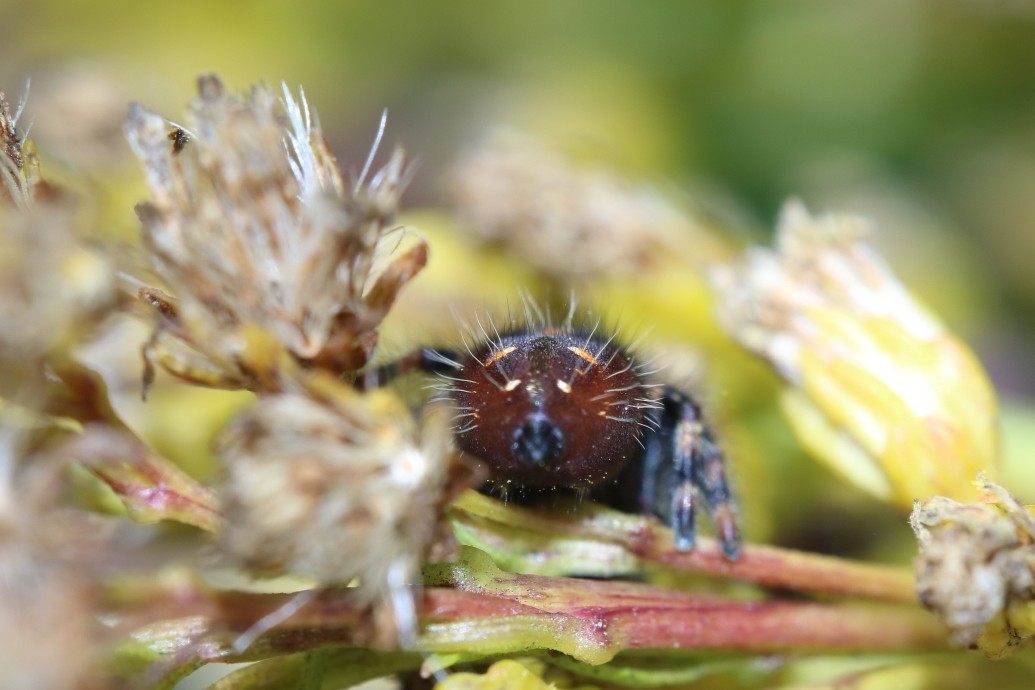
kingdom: Animalia
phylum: Arthropoda
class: Arachnida
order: Araneae
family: Salticidae
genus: Phidippus
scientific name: Phidippus audax
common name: Bold jumper
